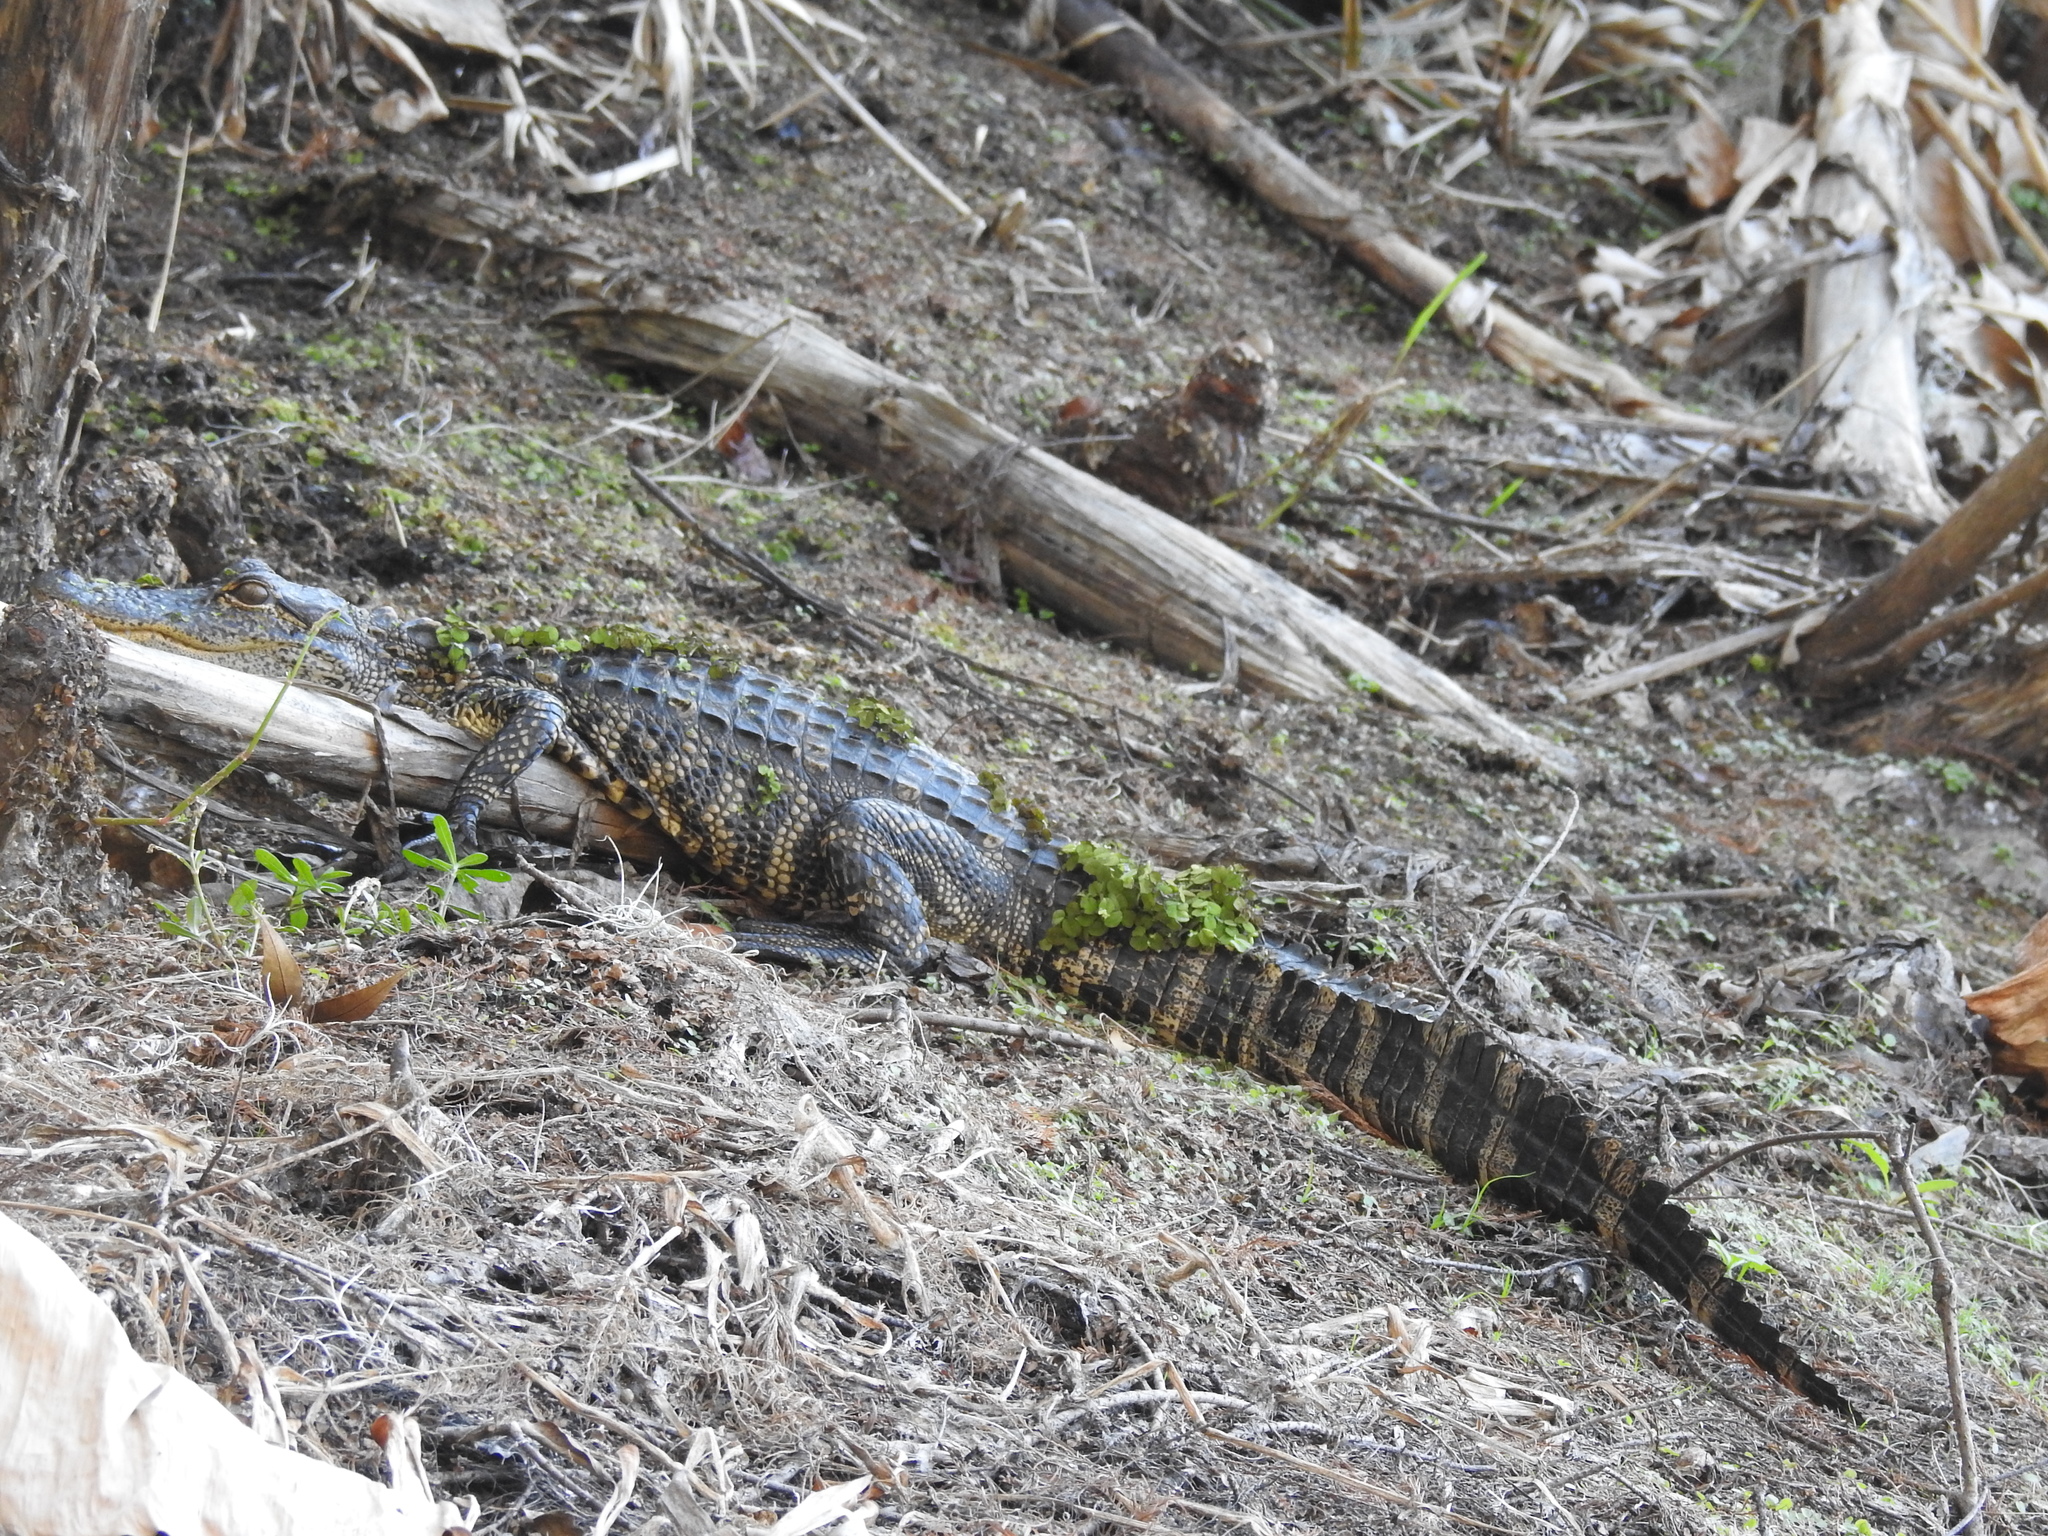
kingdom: Animalia
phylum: Chordata
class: Crocodylia
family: Alligatoridae
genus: Alligator
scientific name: Alligator mississippiensis
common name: American alligator
